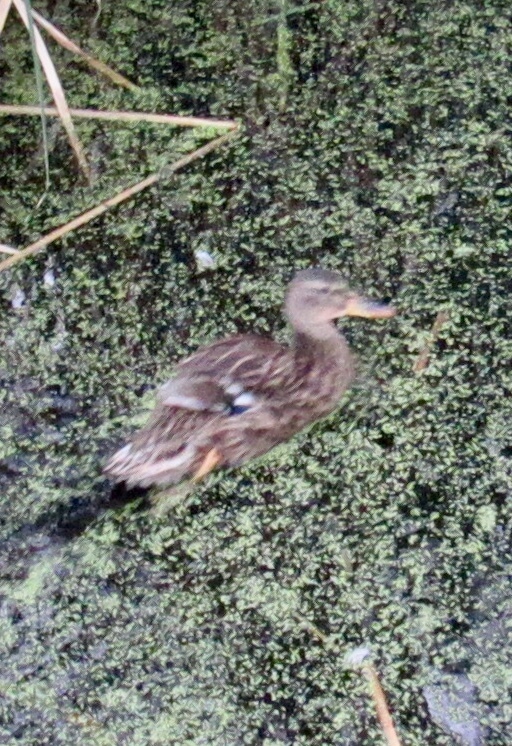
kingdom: Animalia
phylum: Chordata
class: Aves
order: Anseriformes
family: Anatidae
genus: Anas
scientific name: Anas platyrhynchos
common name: Mallard
